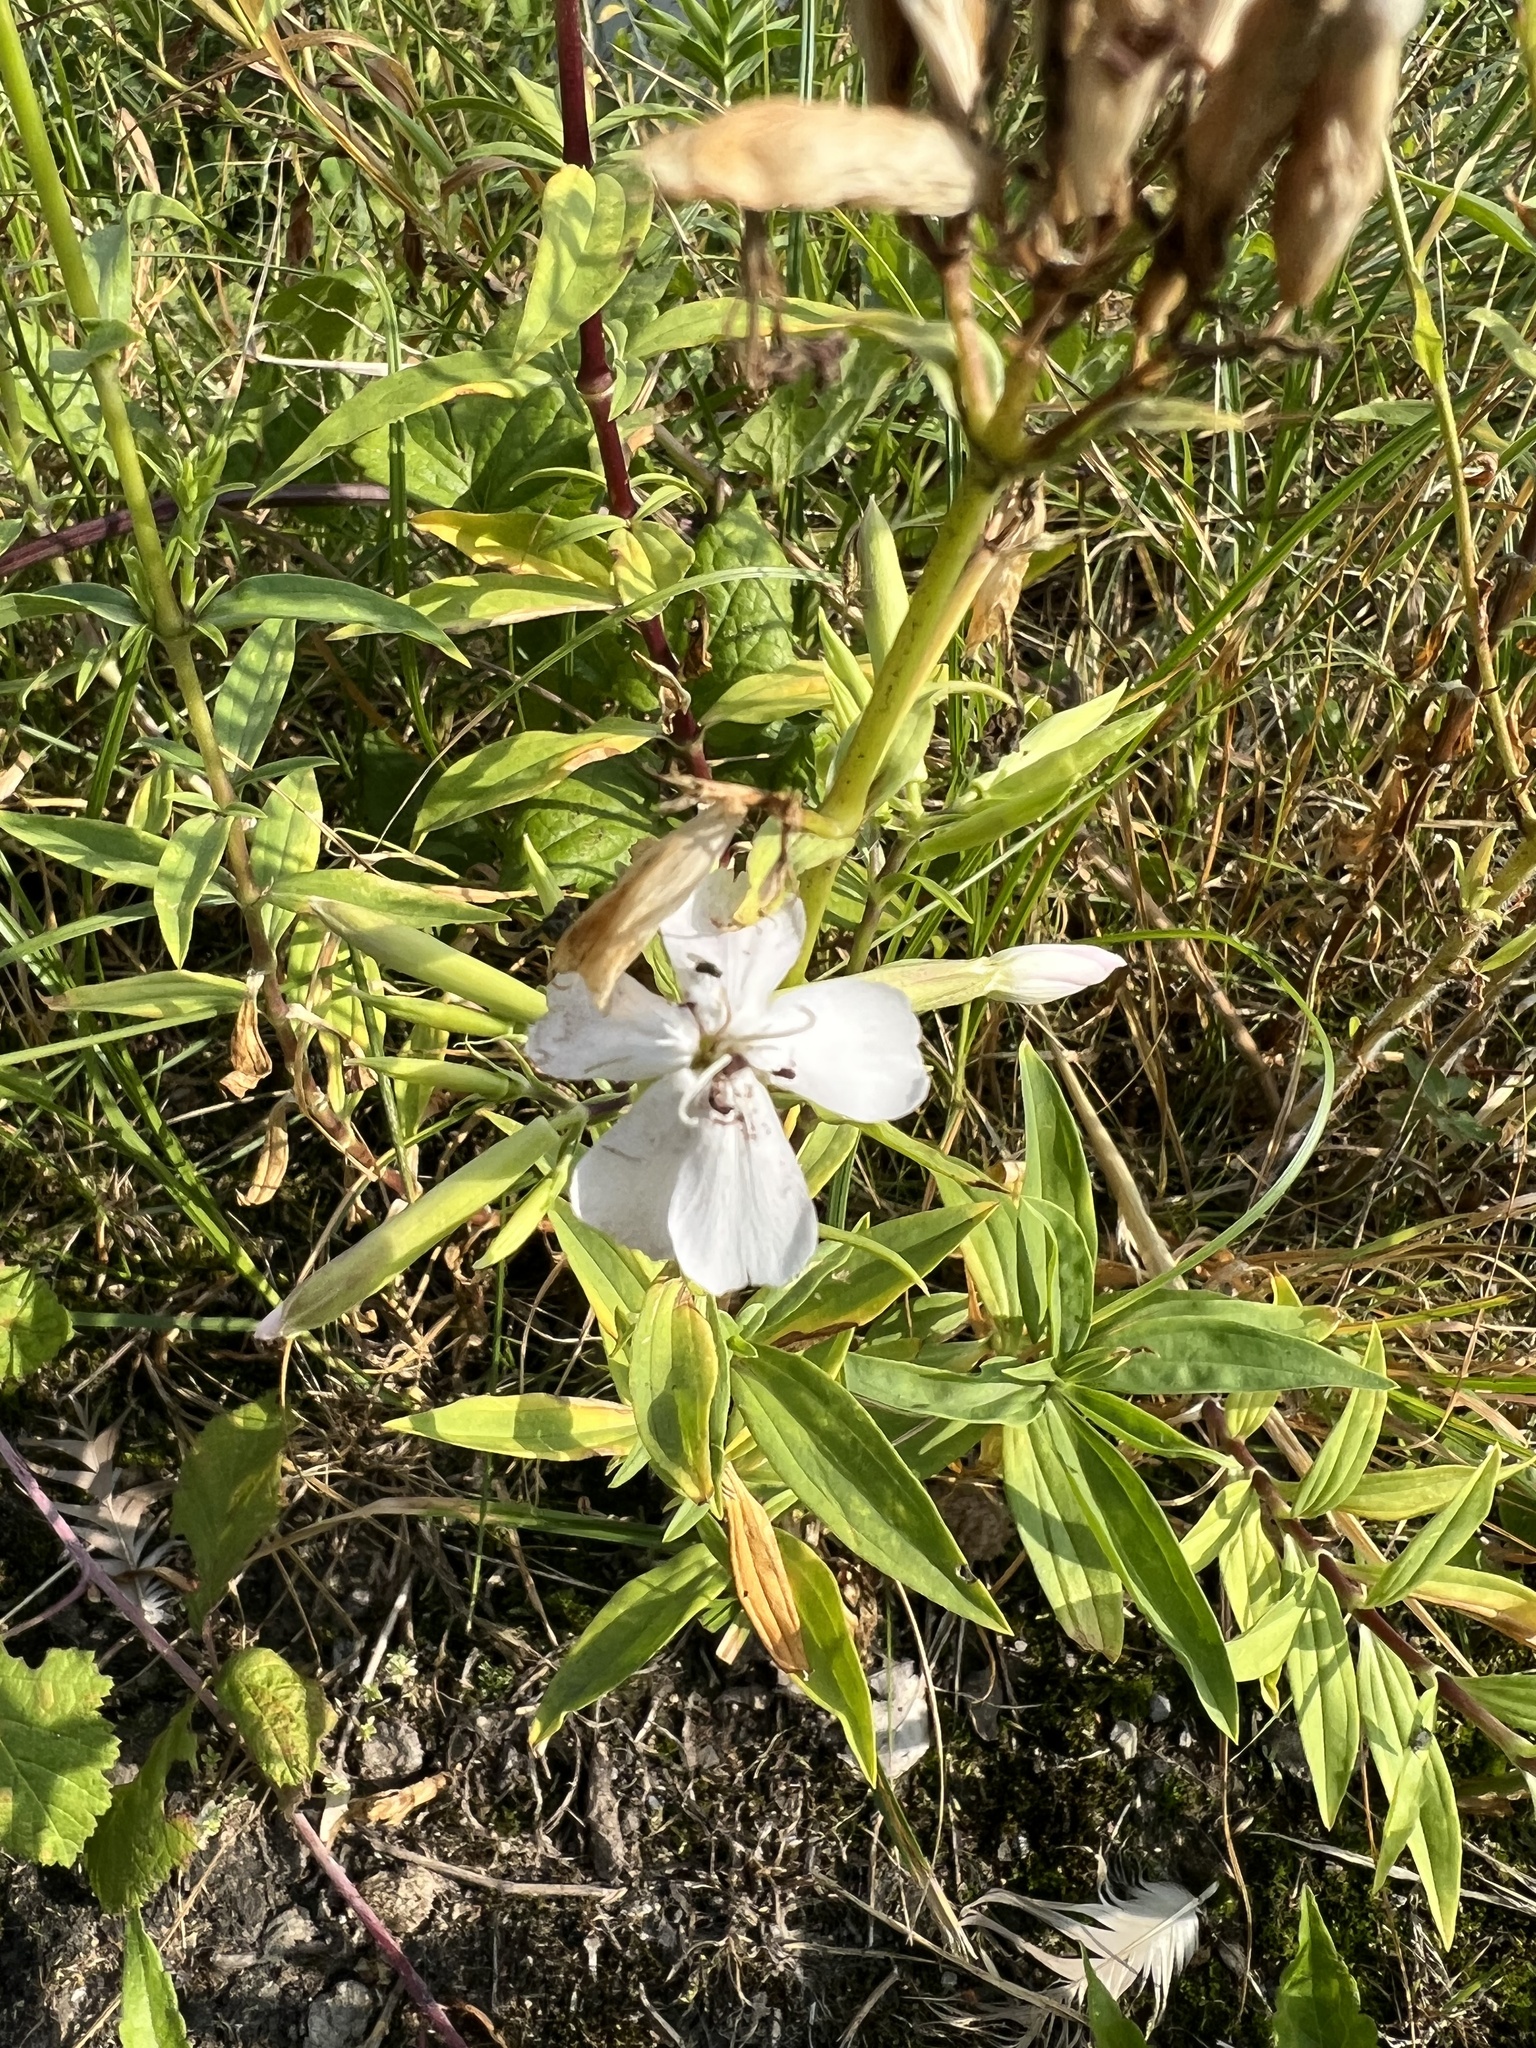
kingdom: Plantae
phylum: Tracheophyta
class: Magnoliopsida
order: Caryophyllales
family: Caryophyllaceae
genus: Saponaria
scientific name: Saponaria officinalis
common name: Soapwort
